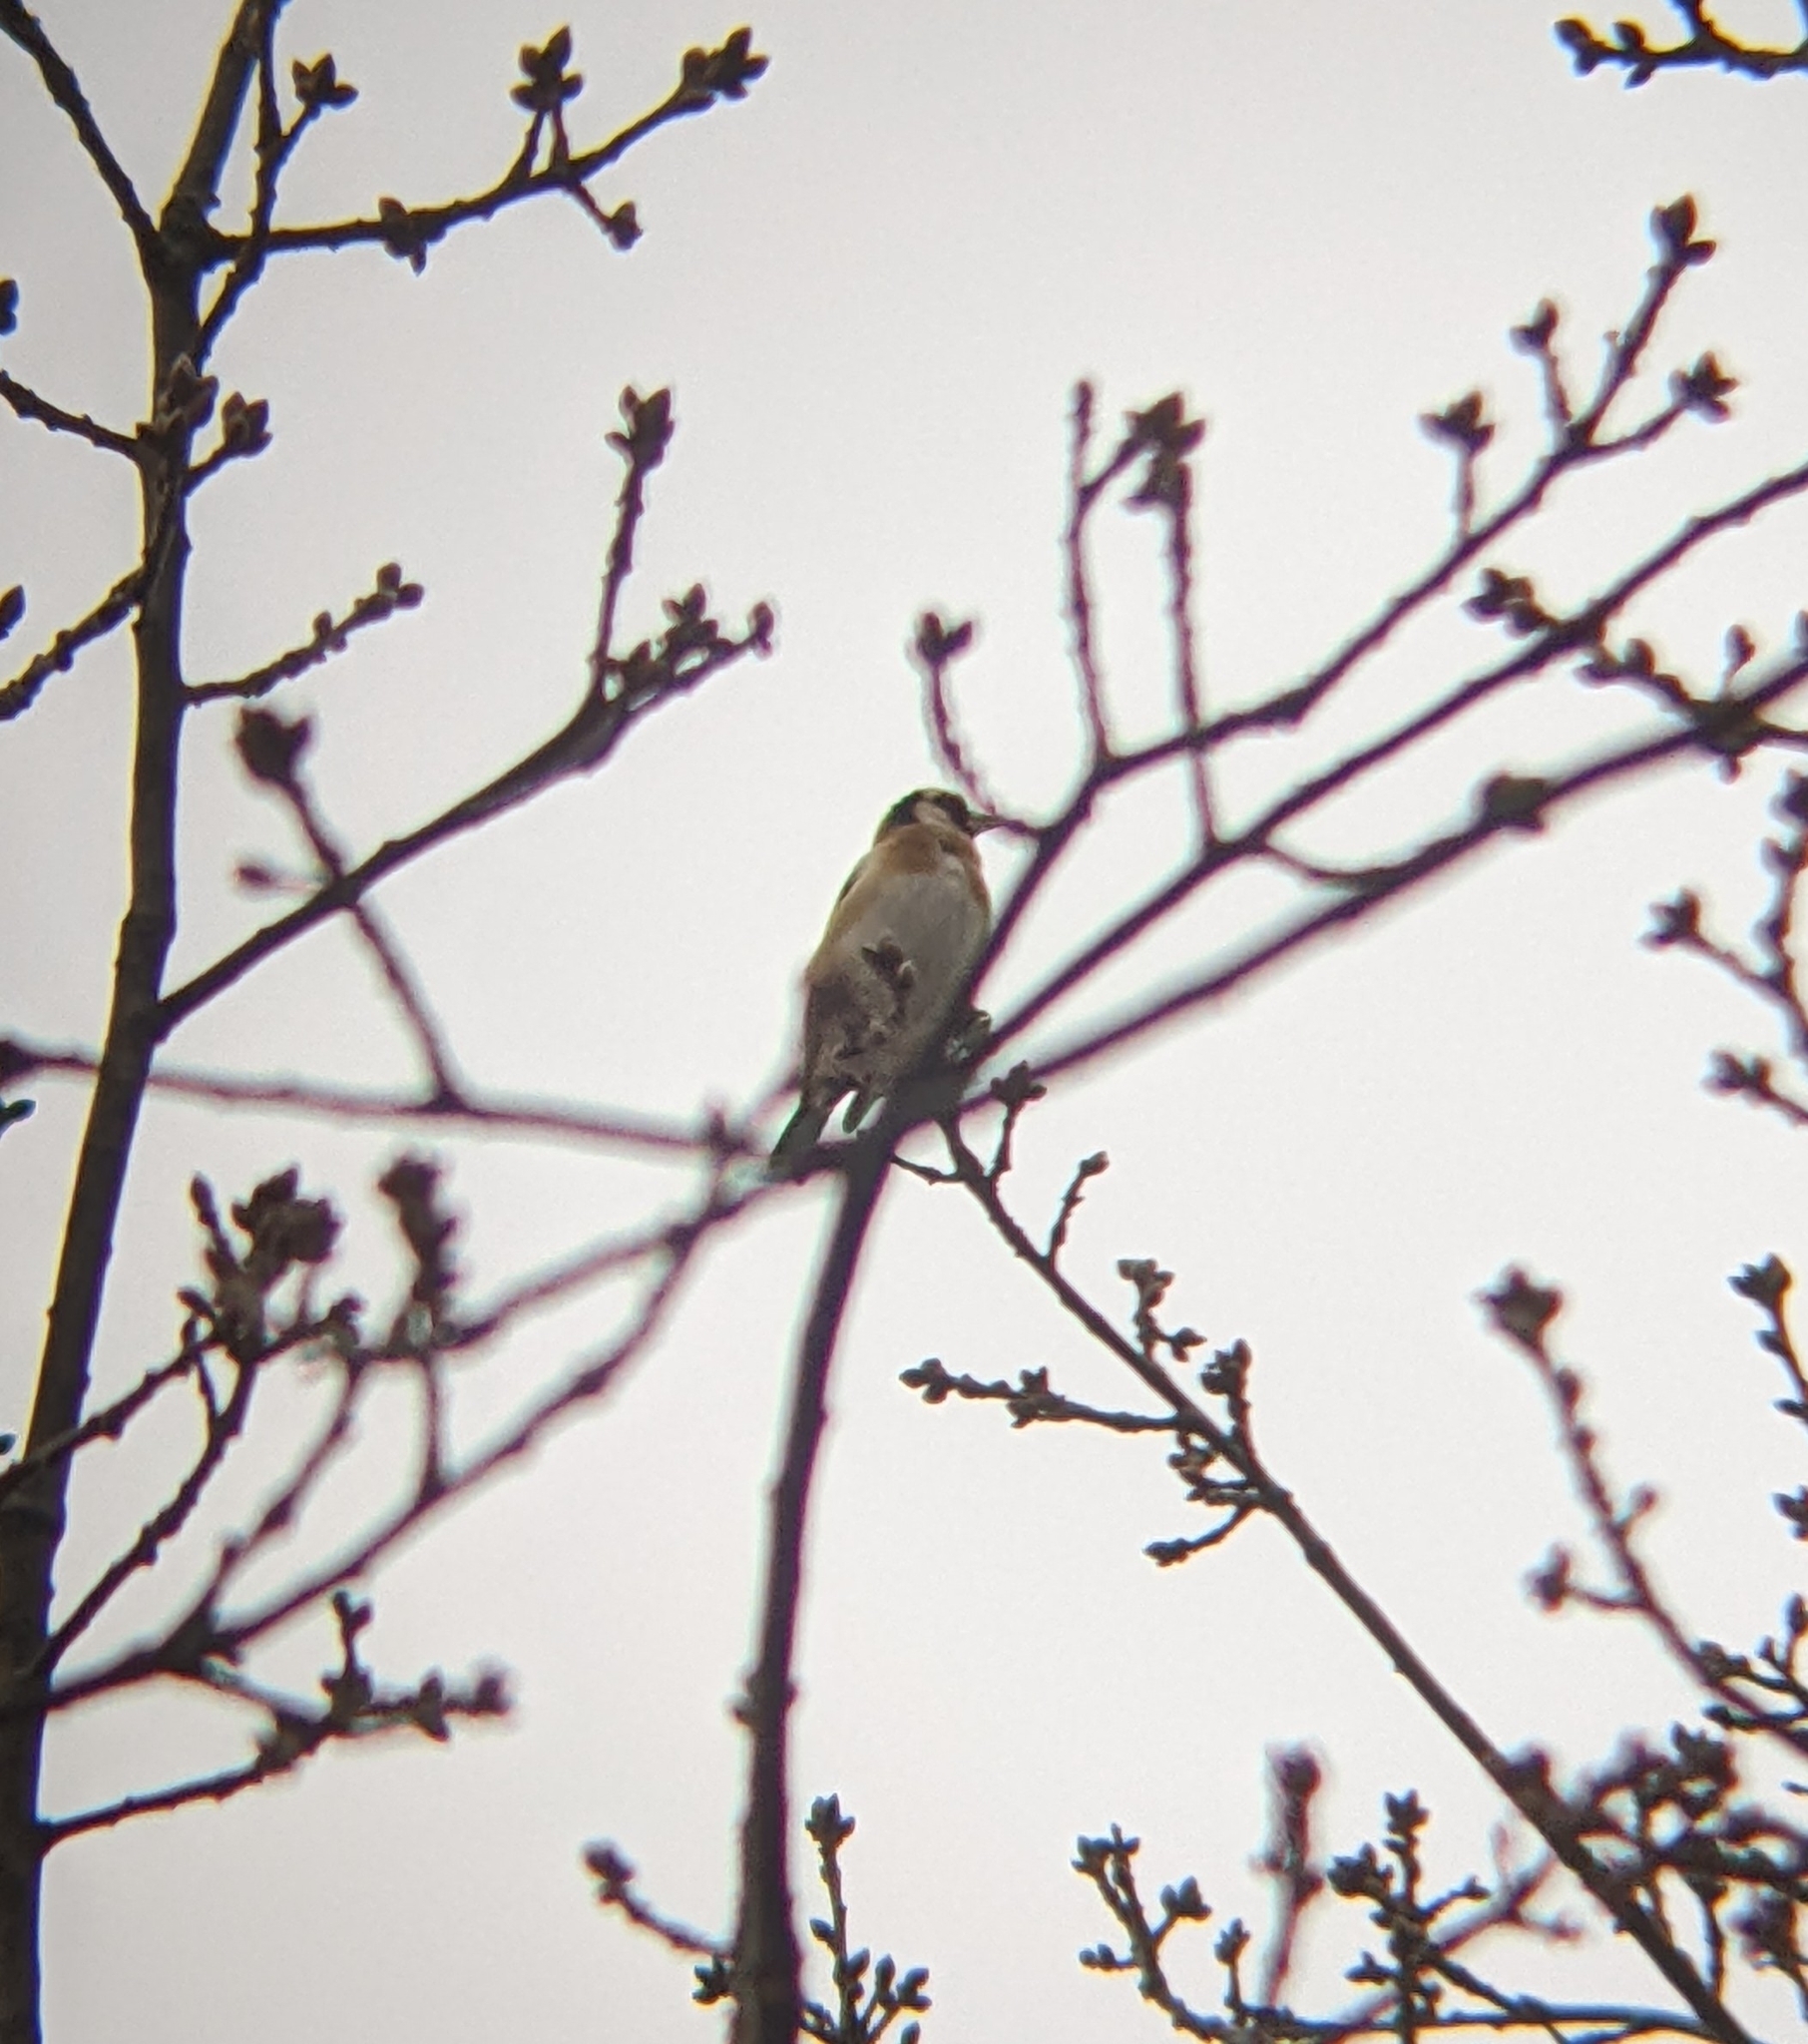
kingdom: Animalia
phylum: Chordata
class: Aves
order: Passeriformes
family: Fringillidae
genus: Carduelis
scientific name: Carduelis carduelis
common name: European goldfinch
